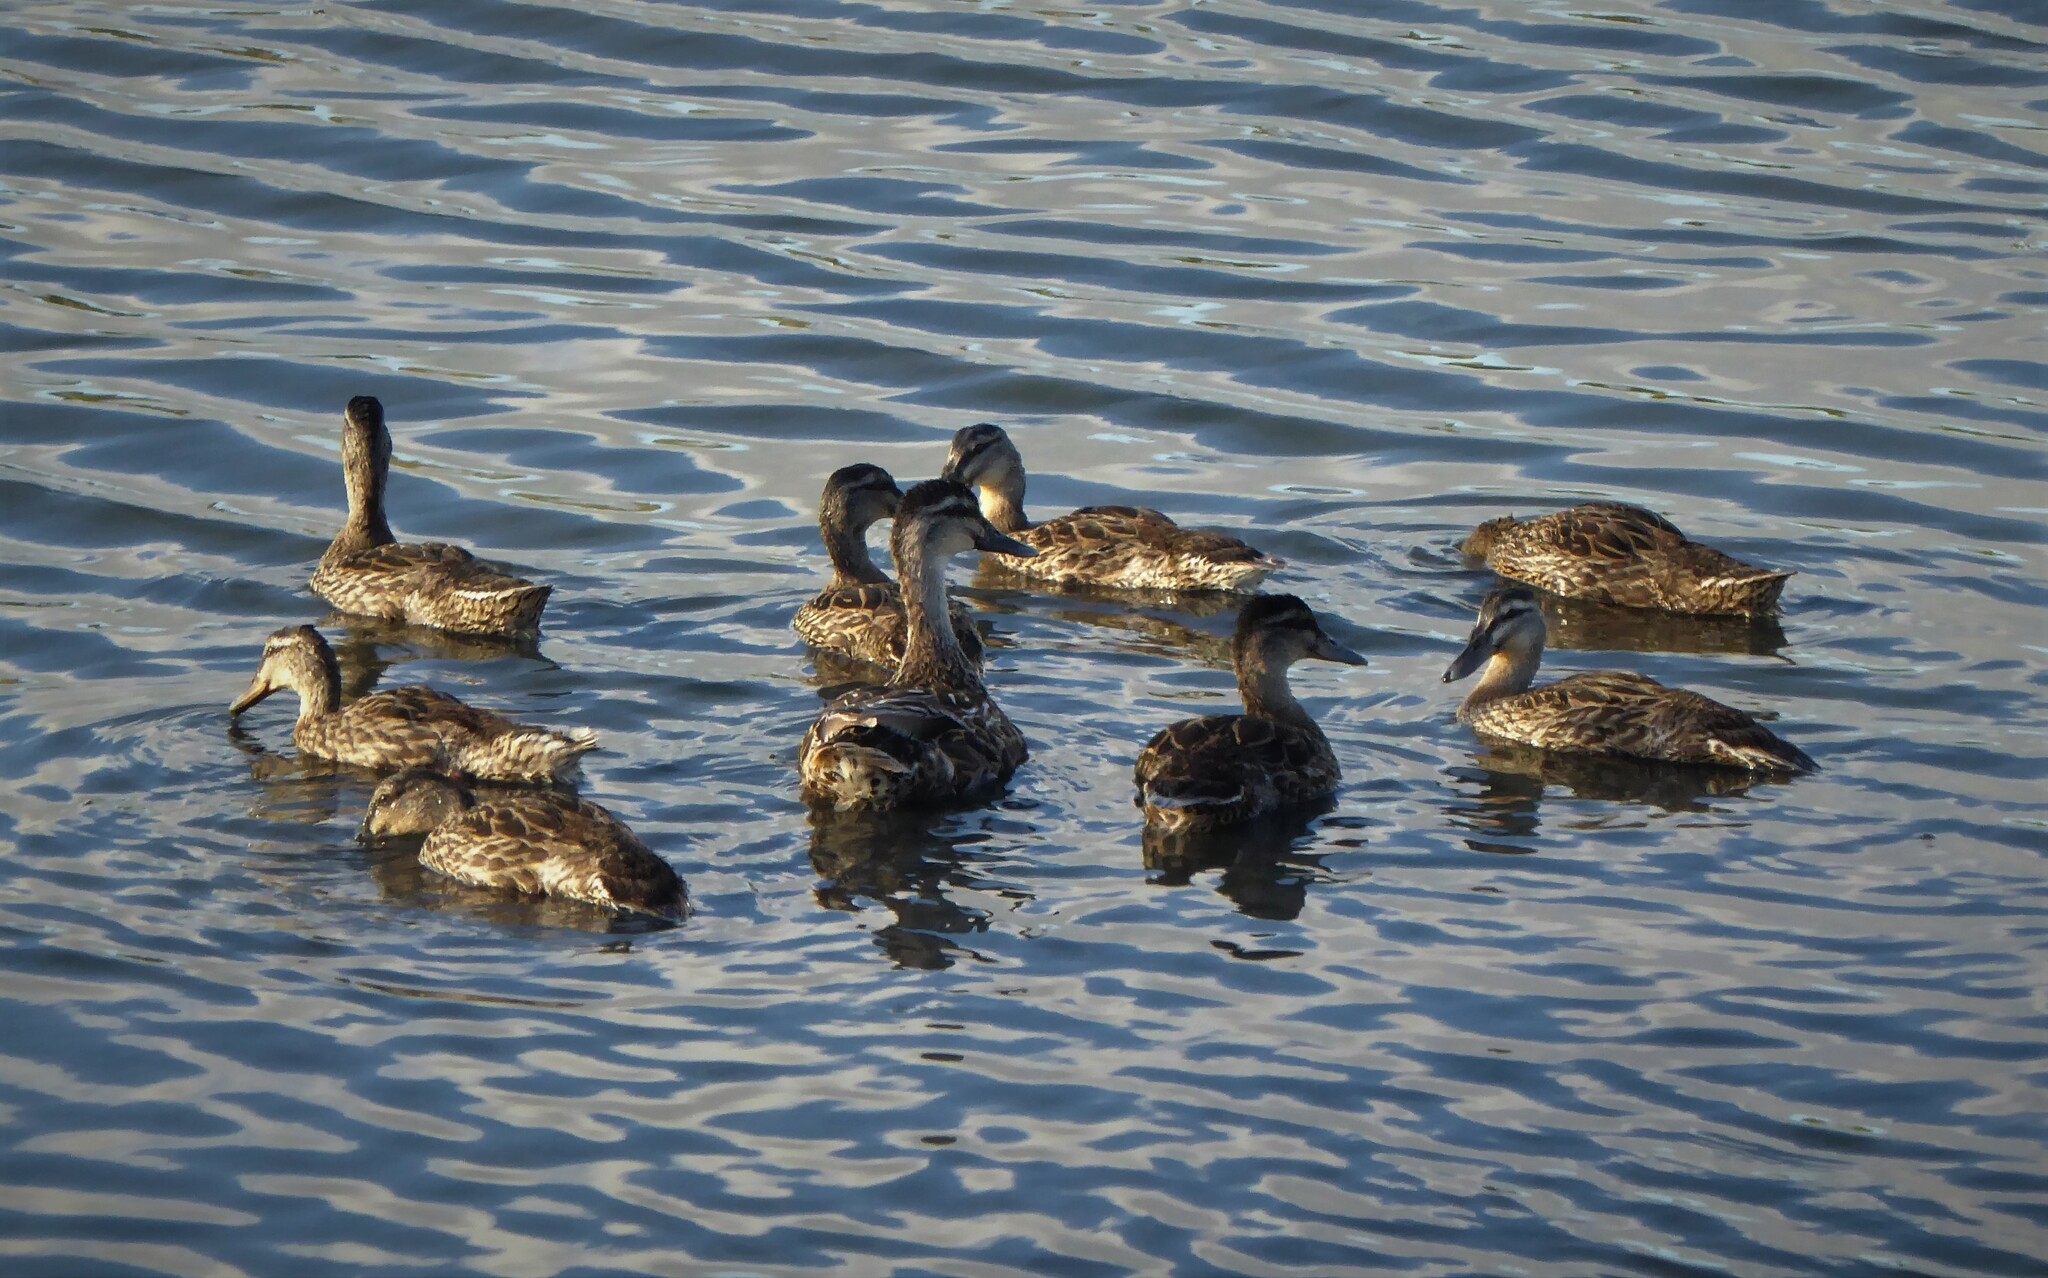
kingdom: Animalia
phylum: Chordata
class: Aves
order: Anseriformes
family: Anatidae
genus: Anas
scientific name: Anas platyrhynchos
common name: Mallard
